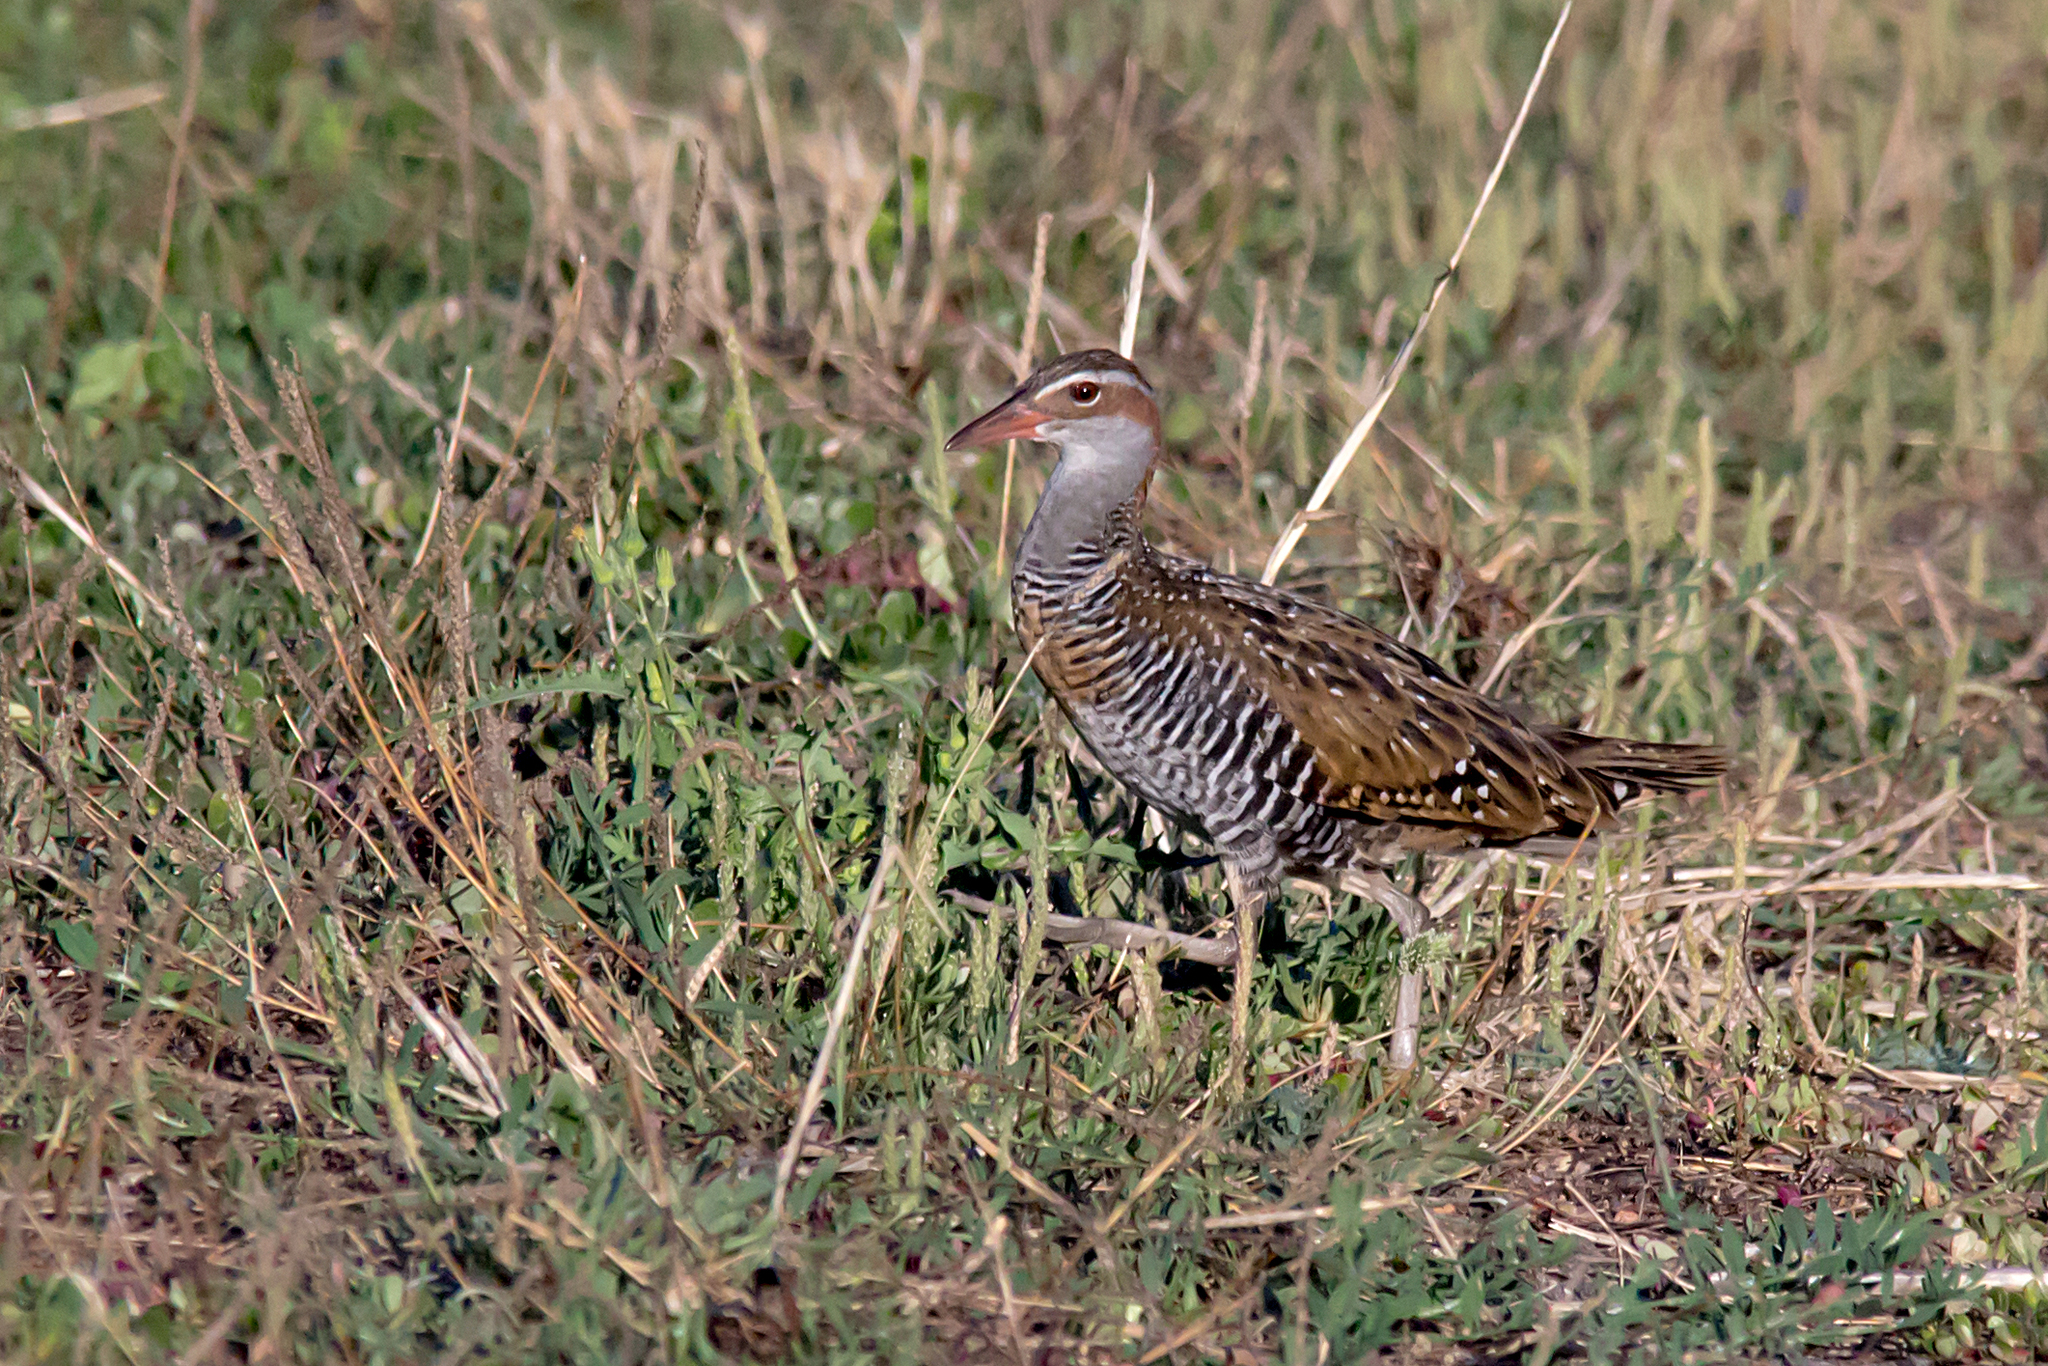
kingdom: Animalia
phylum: Chordata
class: Aves
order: Gruiformes
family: Rallidae
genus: Gallirallus
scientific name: Gallirallus philippensis
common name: Buff-banded rail
